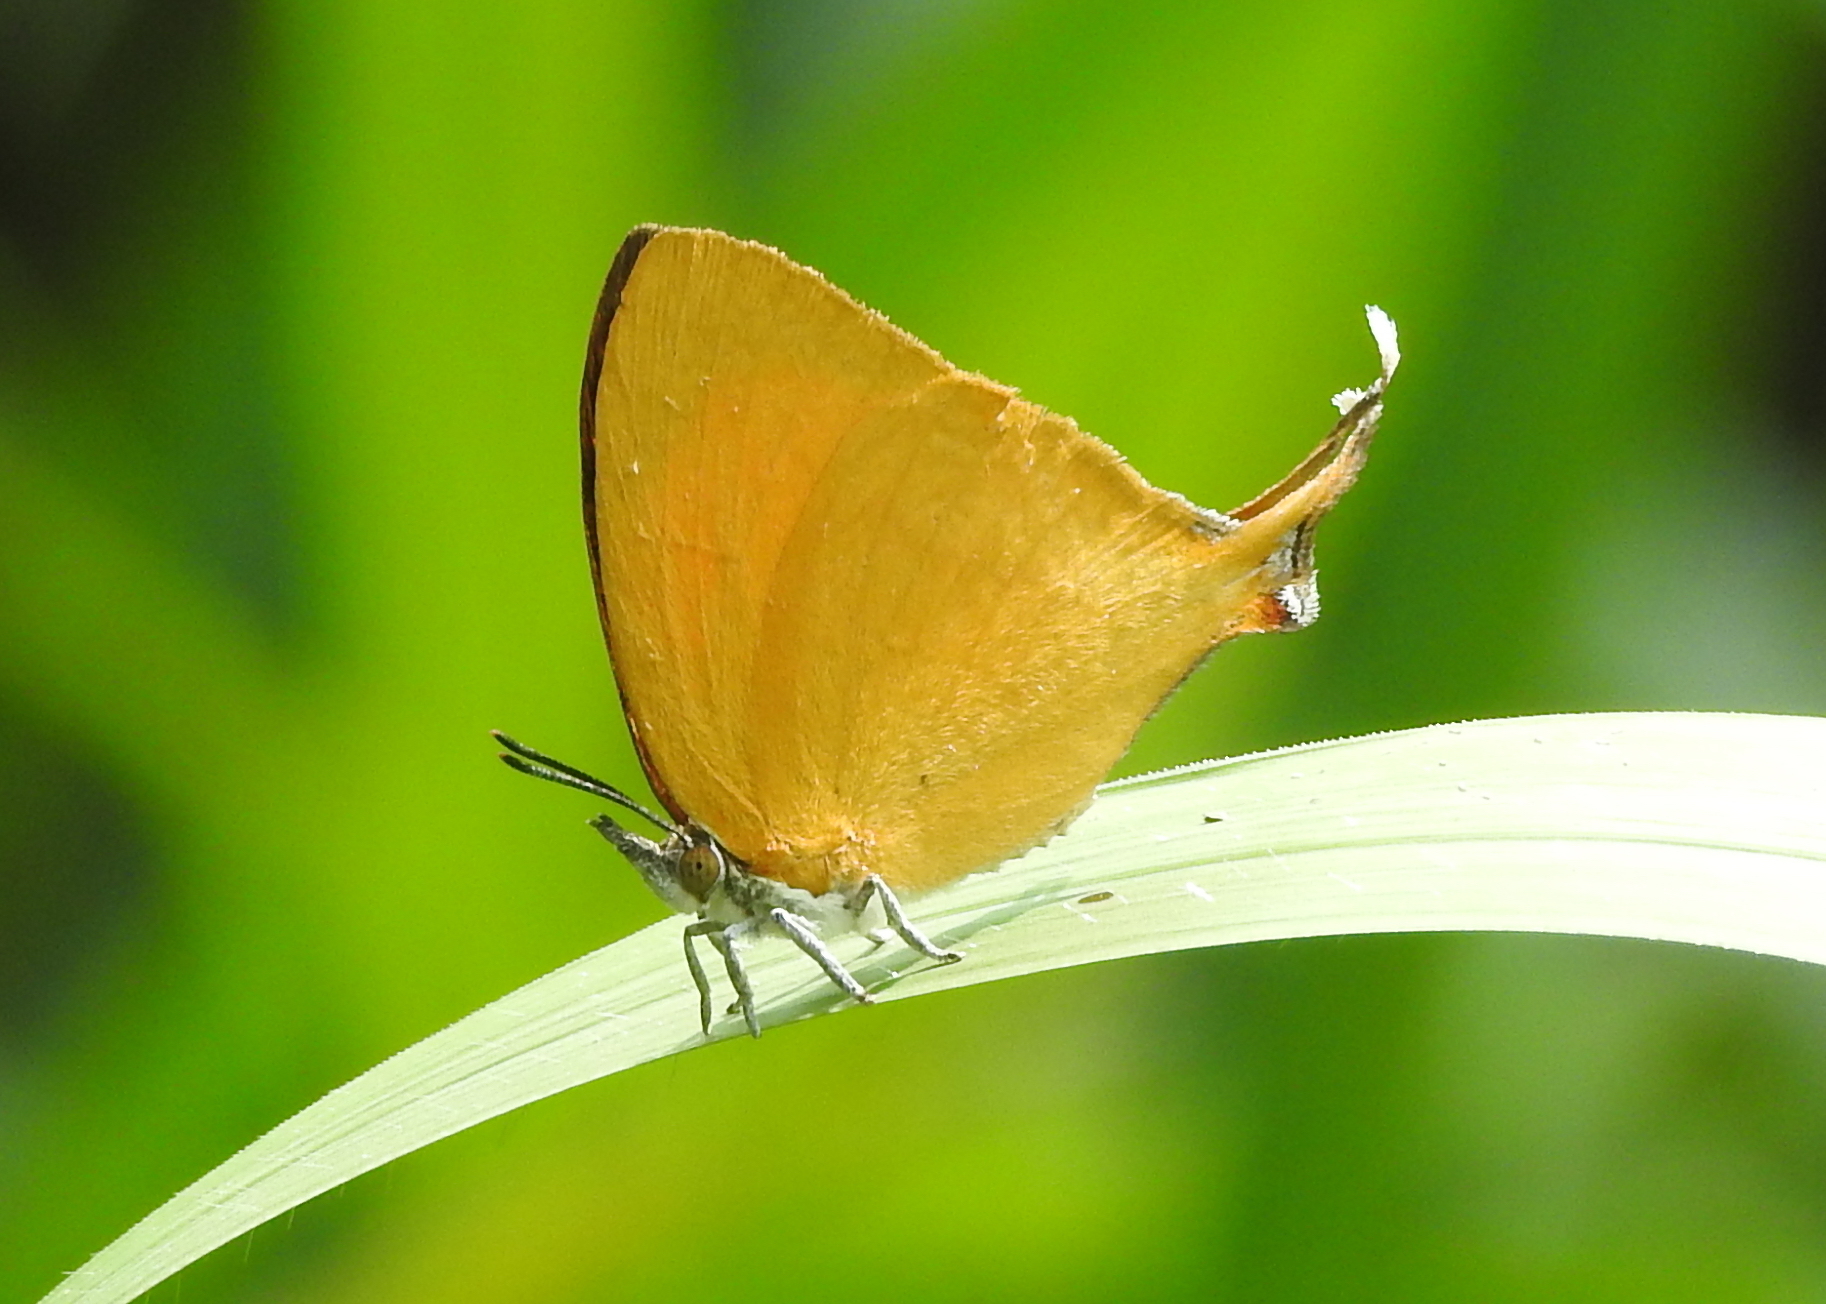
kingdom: Animalia
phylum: Arthropoda
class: Insecta
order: Lepidoptera
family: Lycaenidae
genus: Loxura
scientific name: Loxura atymnus
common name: Common yamfly
